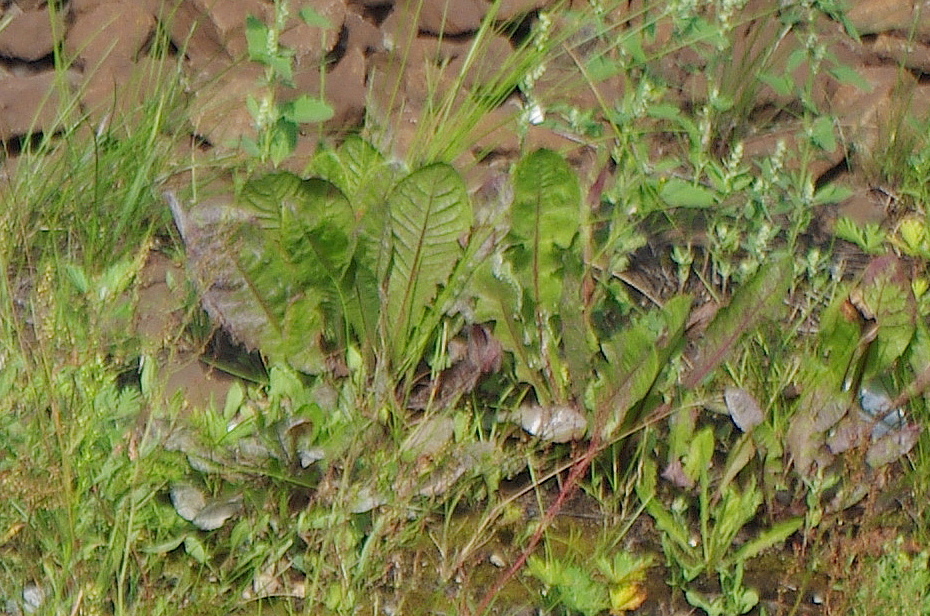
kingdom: Plantae
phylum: Tracheophyta
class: Magnoliopsida
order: Asterales
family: Asteraceae
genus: Taraxacum
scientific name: Taraxacum officinale
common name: Common dandelion
